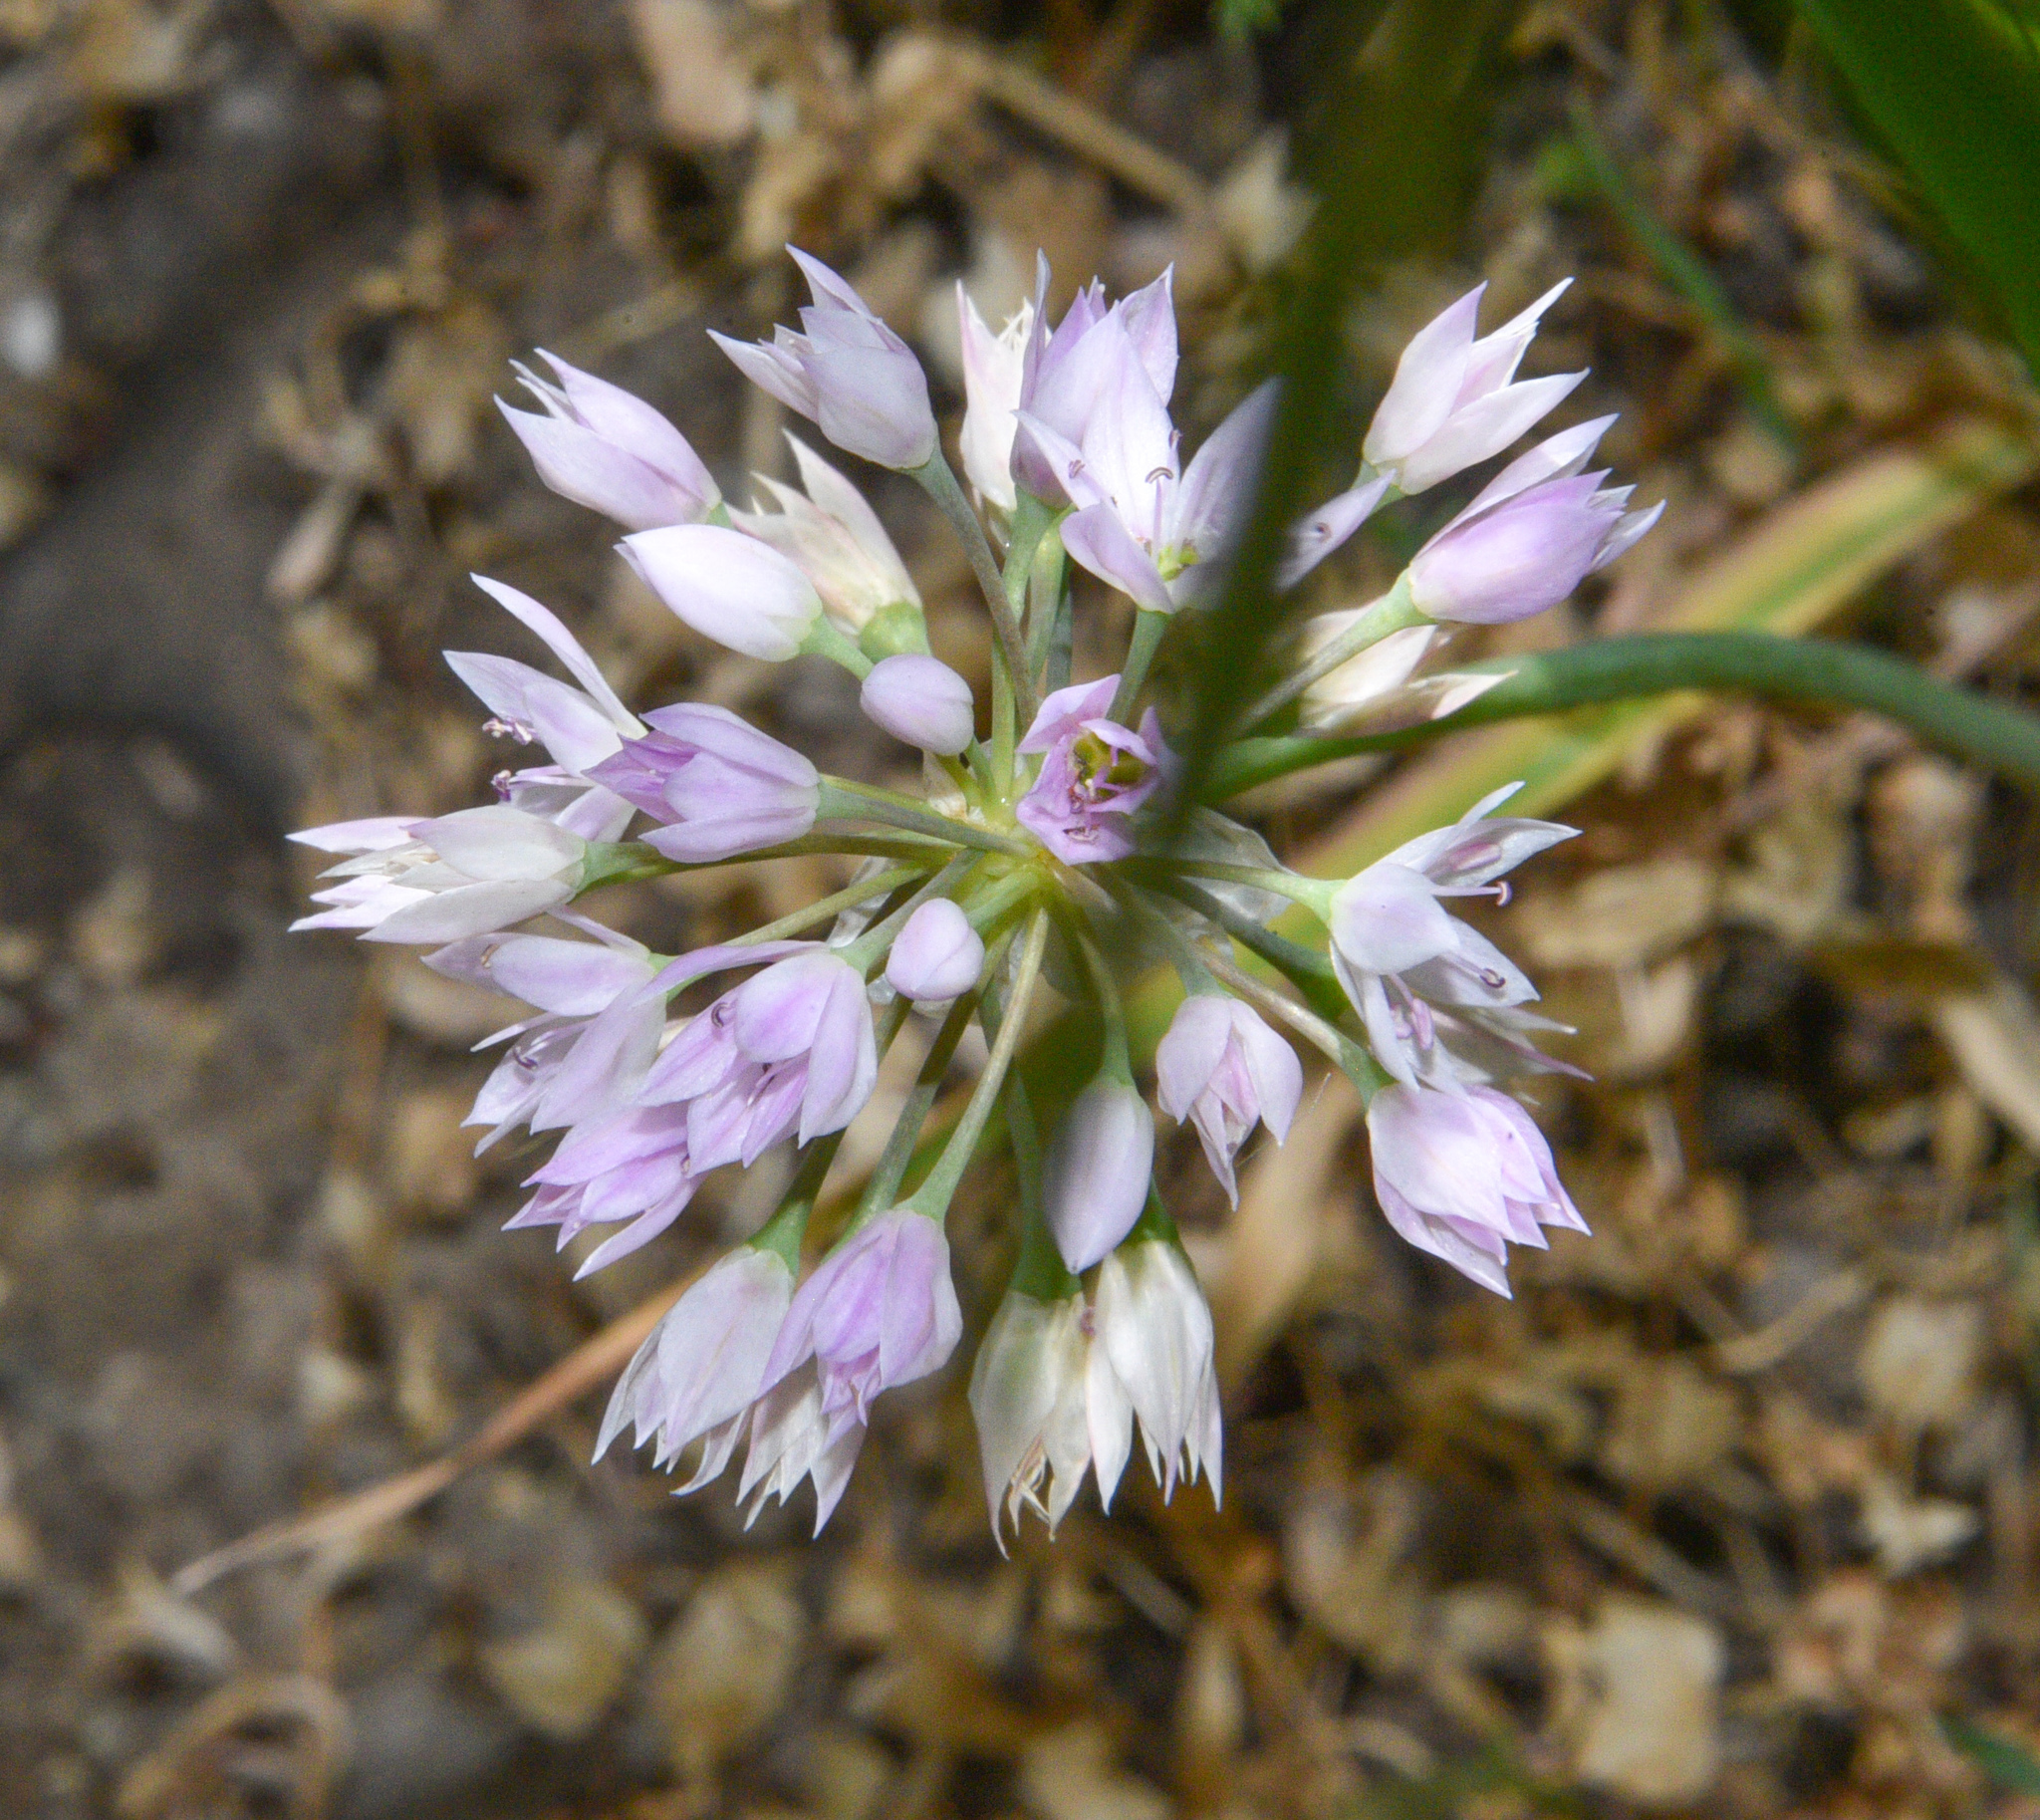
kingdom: Plantae
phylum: Tracheophyta
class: Liliopsida
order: Asparagales
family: Amaryllidaceae
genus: Allium
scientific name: Allium bisceptrum
